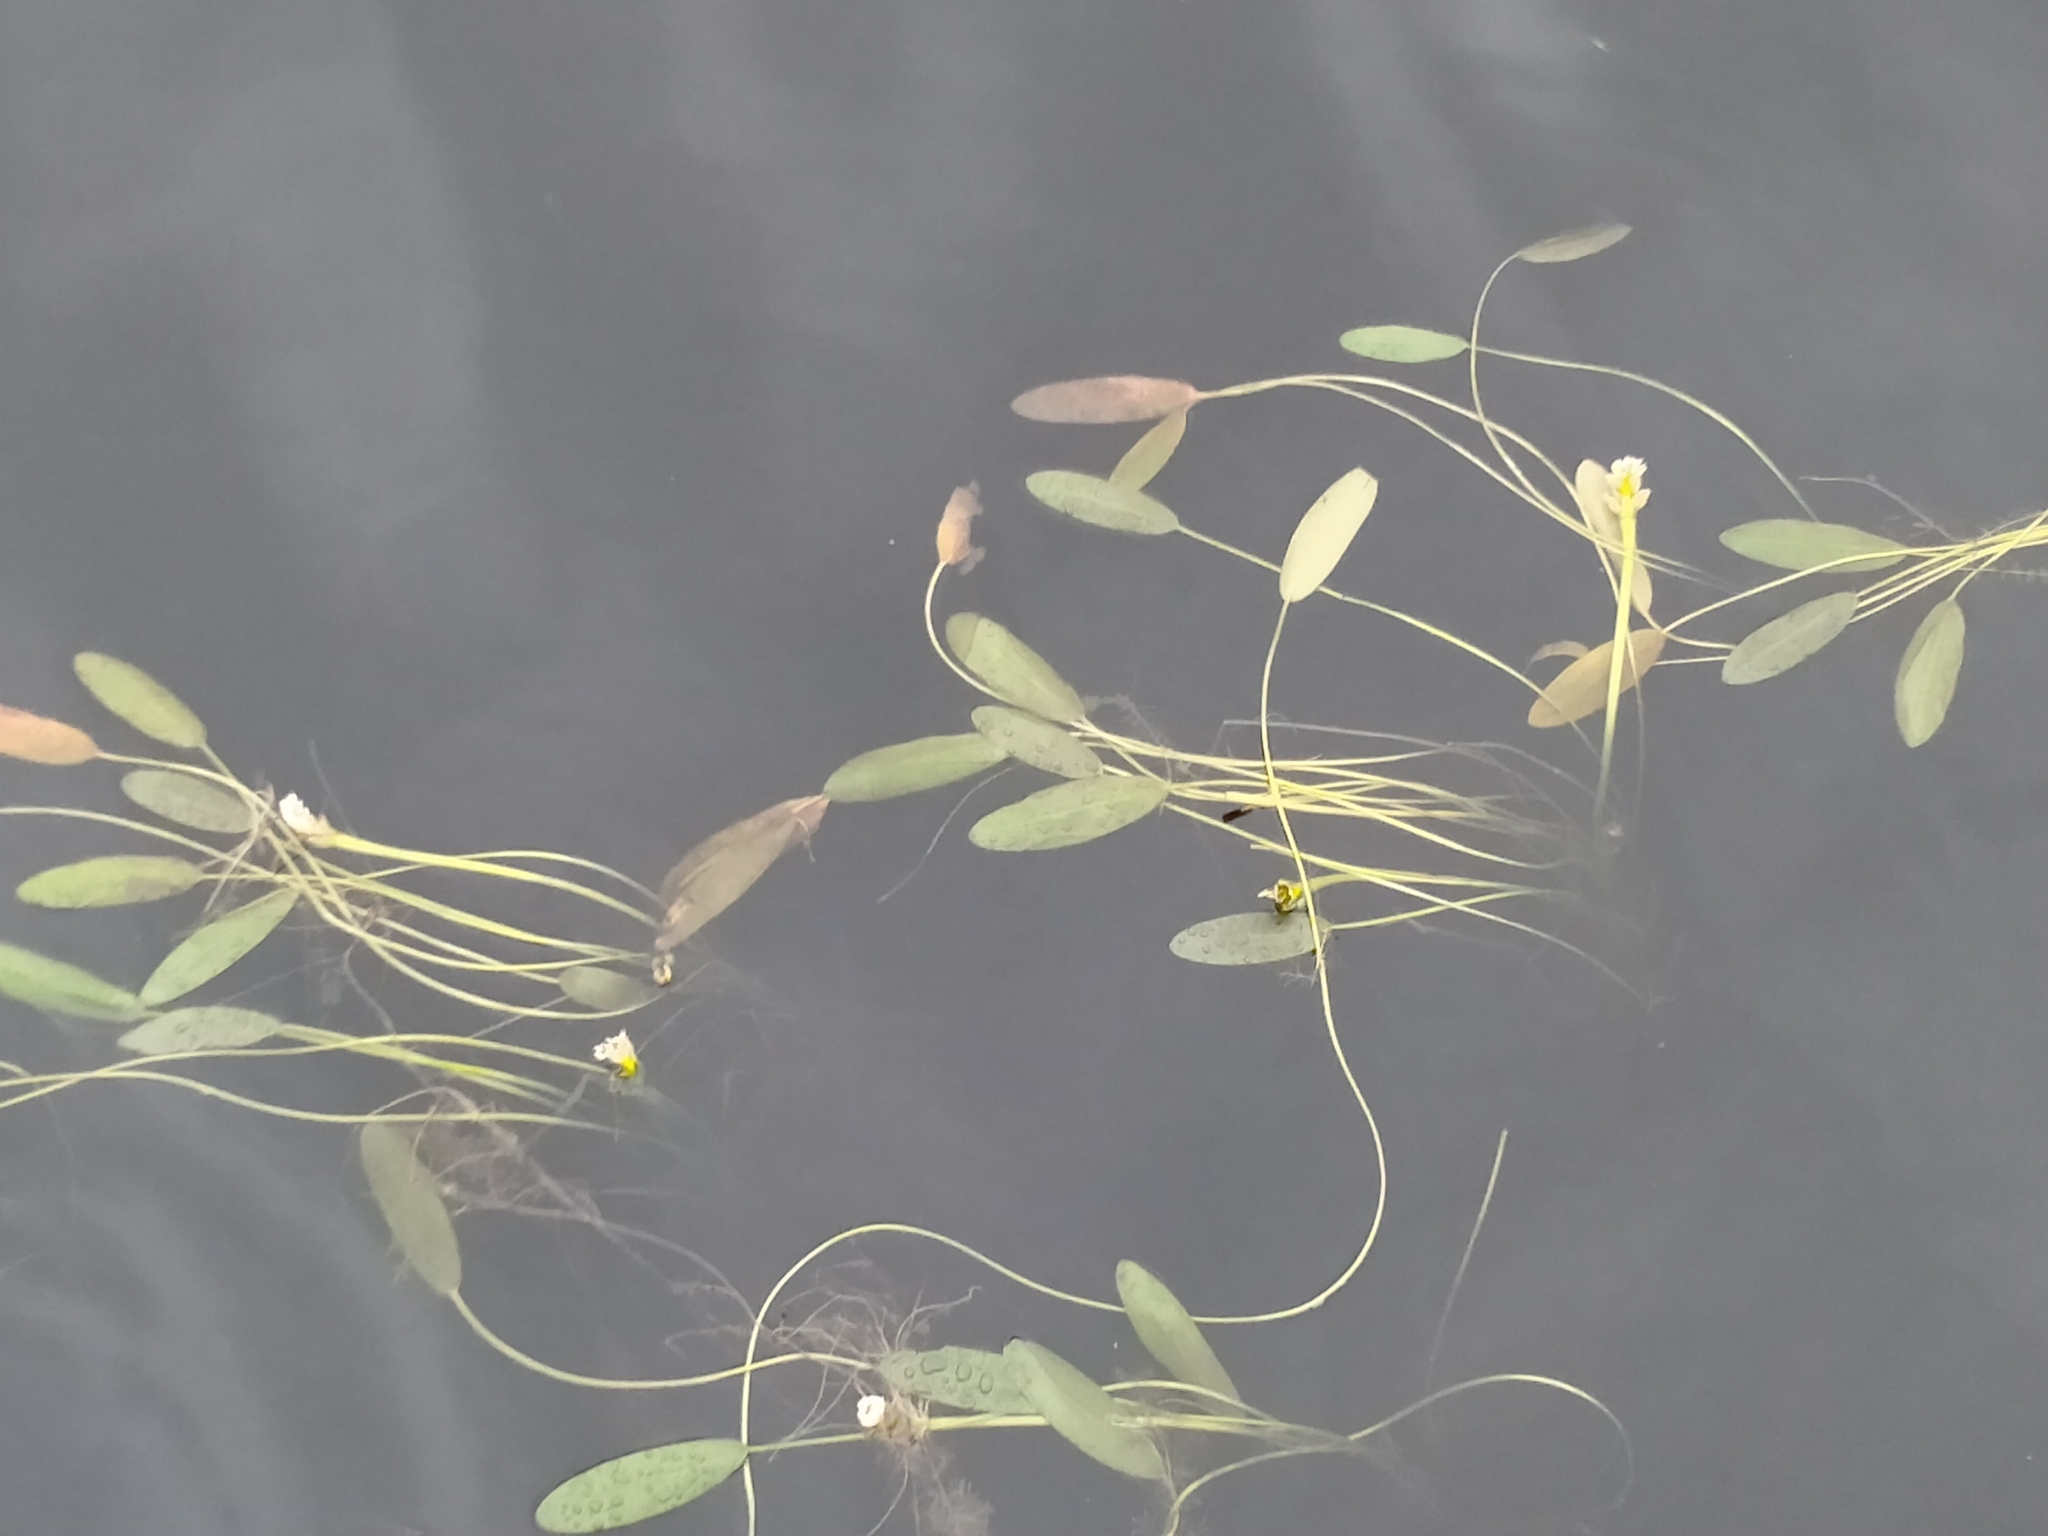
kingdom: Plantae
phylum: Tracheophyta
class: Liliopsida
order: Alismatales
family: Aponogetonaceae
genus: Aponogeton
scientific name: Aponogeton distachyos
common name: Cape-pondweed
